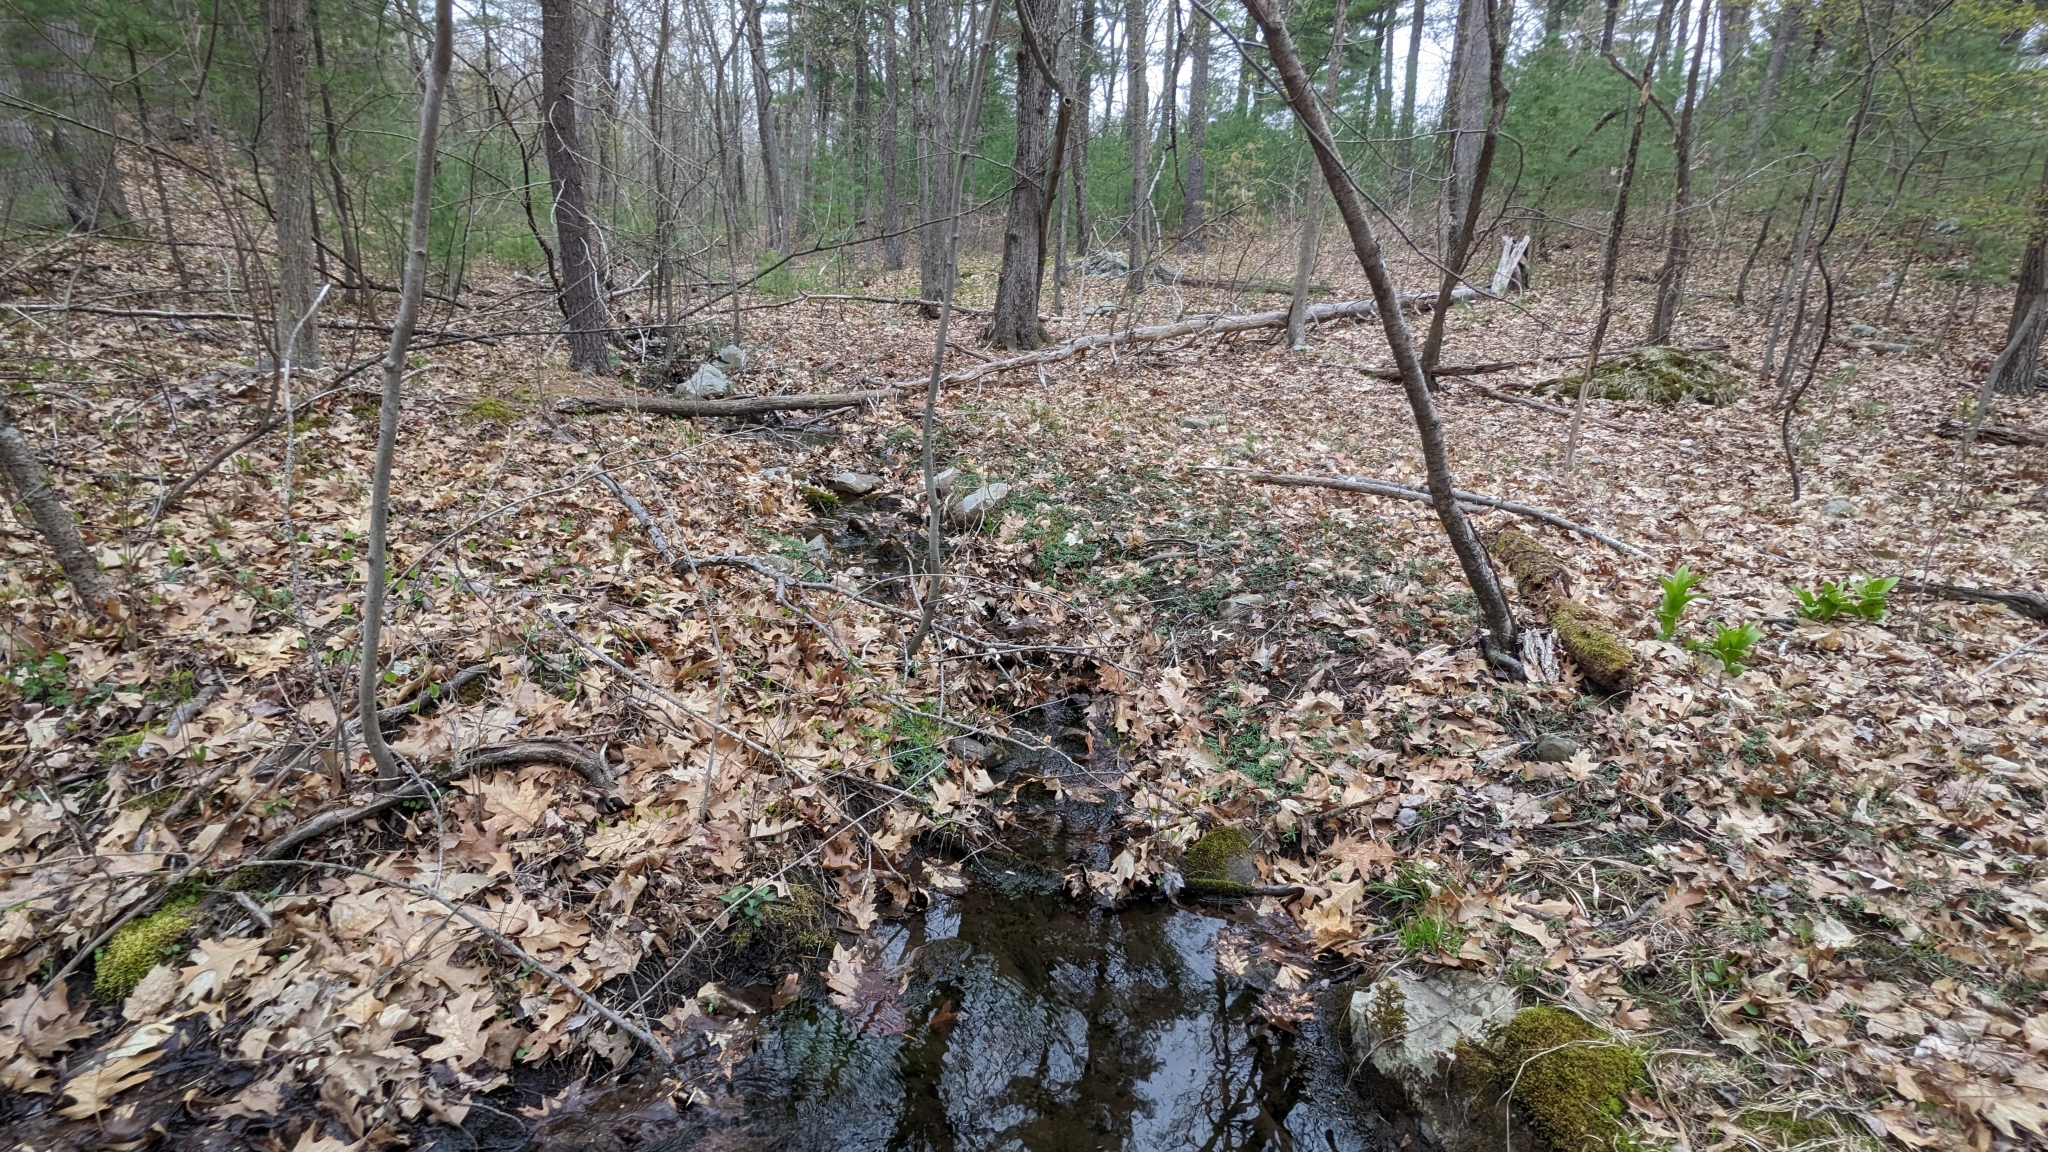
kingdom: Plantae
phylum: Tracheophyta
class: Magnoliopsida
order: Brassicales
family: Brassicaceae
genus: Cardamine
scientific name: Cardamine concatenata
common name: Cut-leaf toothcup
